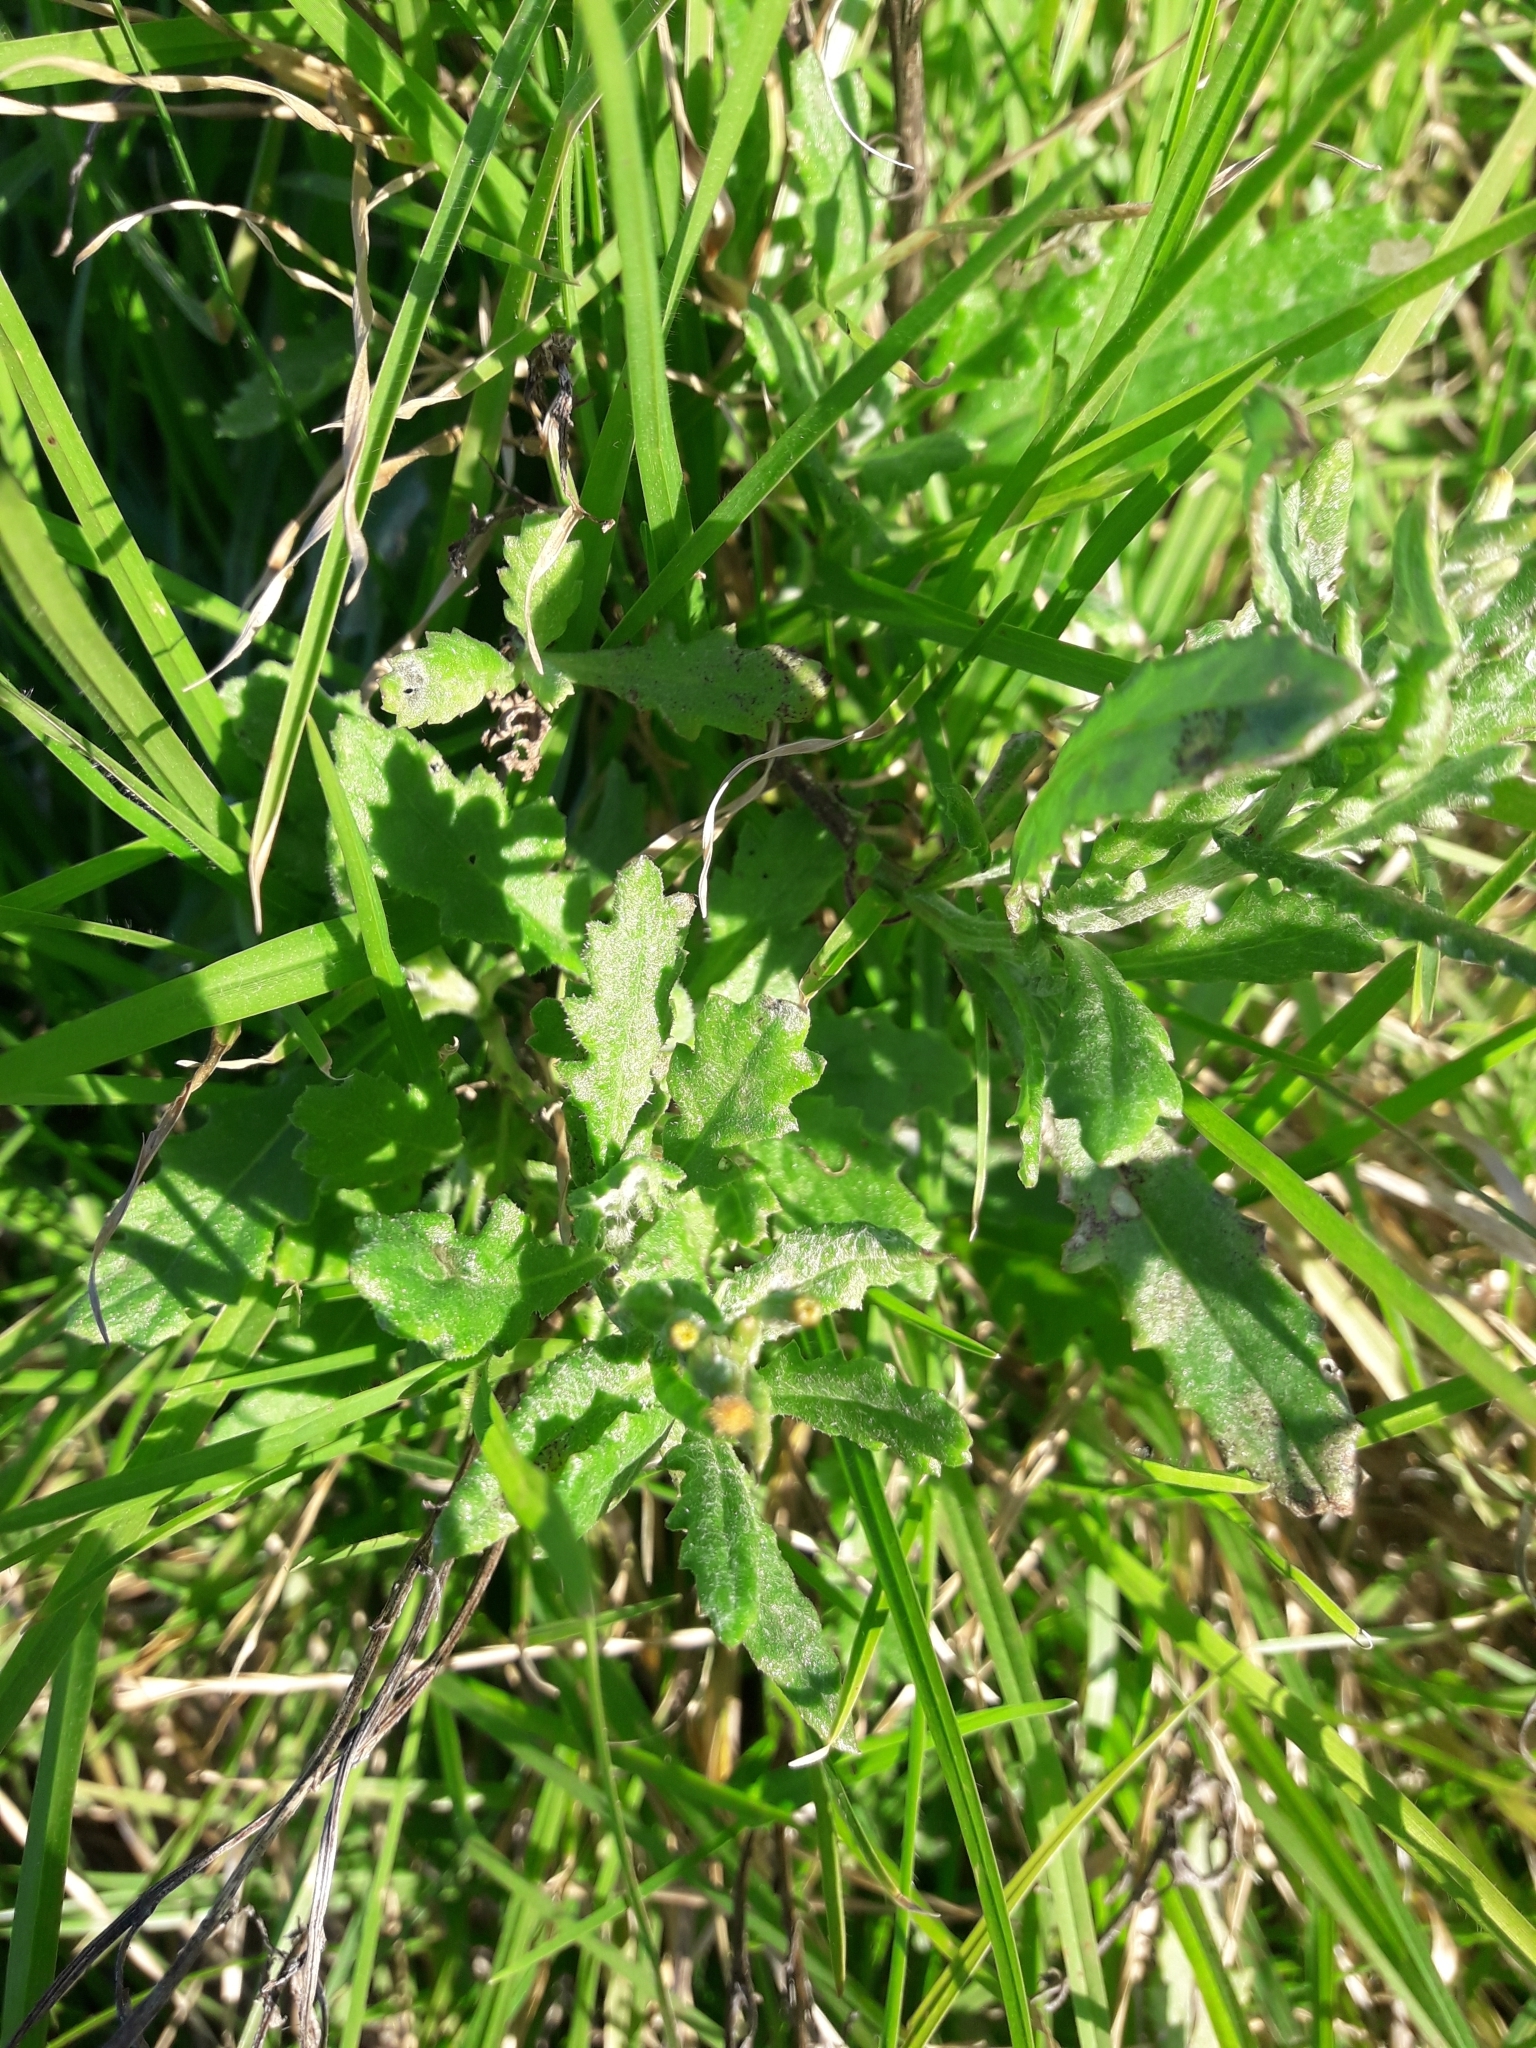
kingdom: Plantae
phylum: Tracheophyta
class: Magnoliopsida
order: Asterales
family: Asteraceae
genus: Senecio
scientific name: Senecio glomeratus
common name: Cutleaf burnweed
